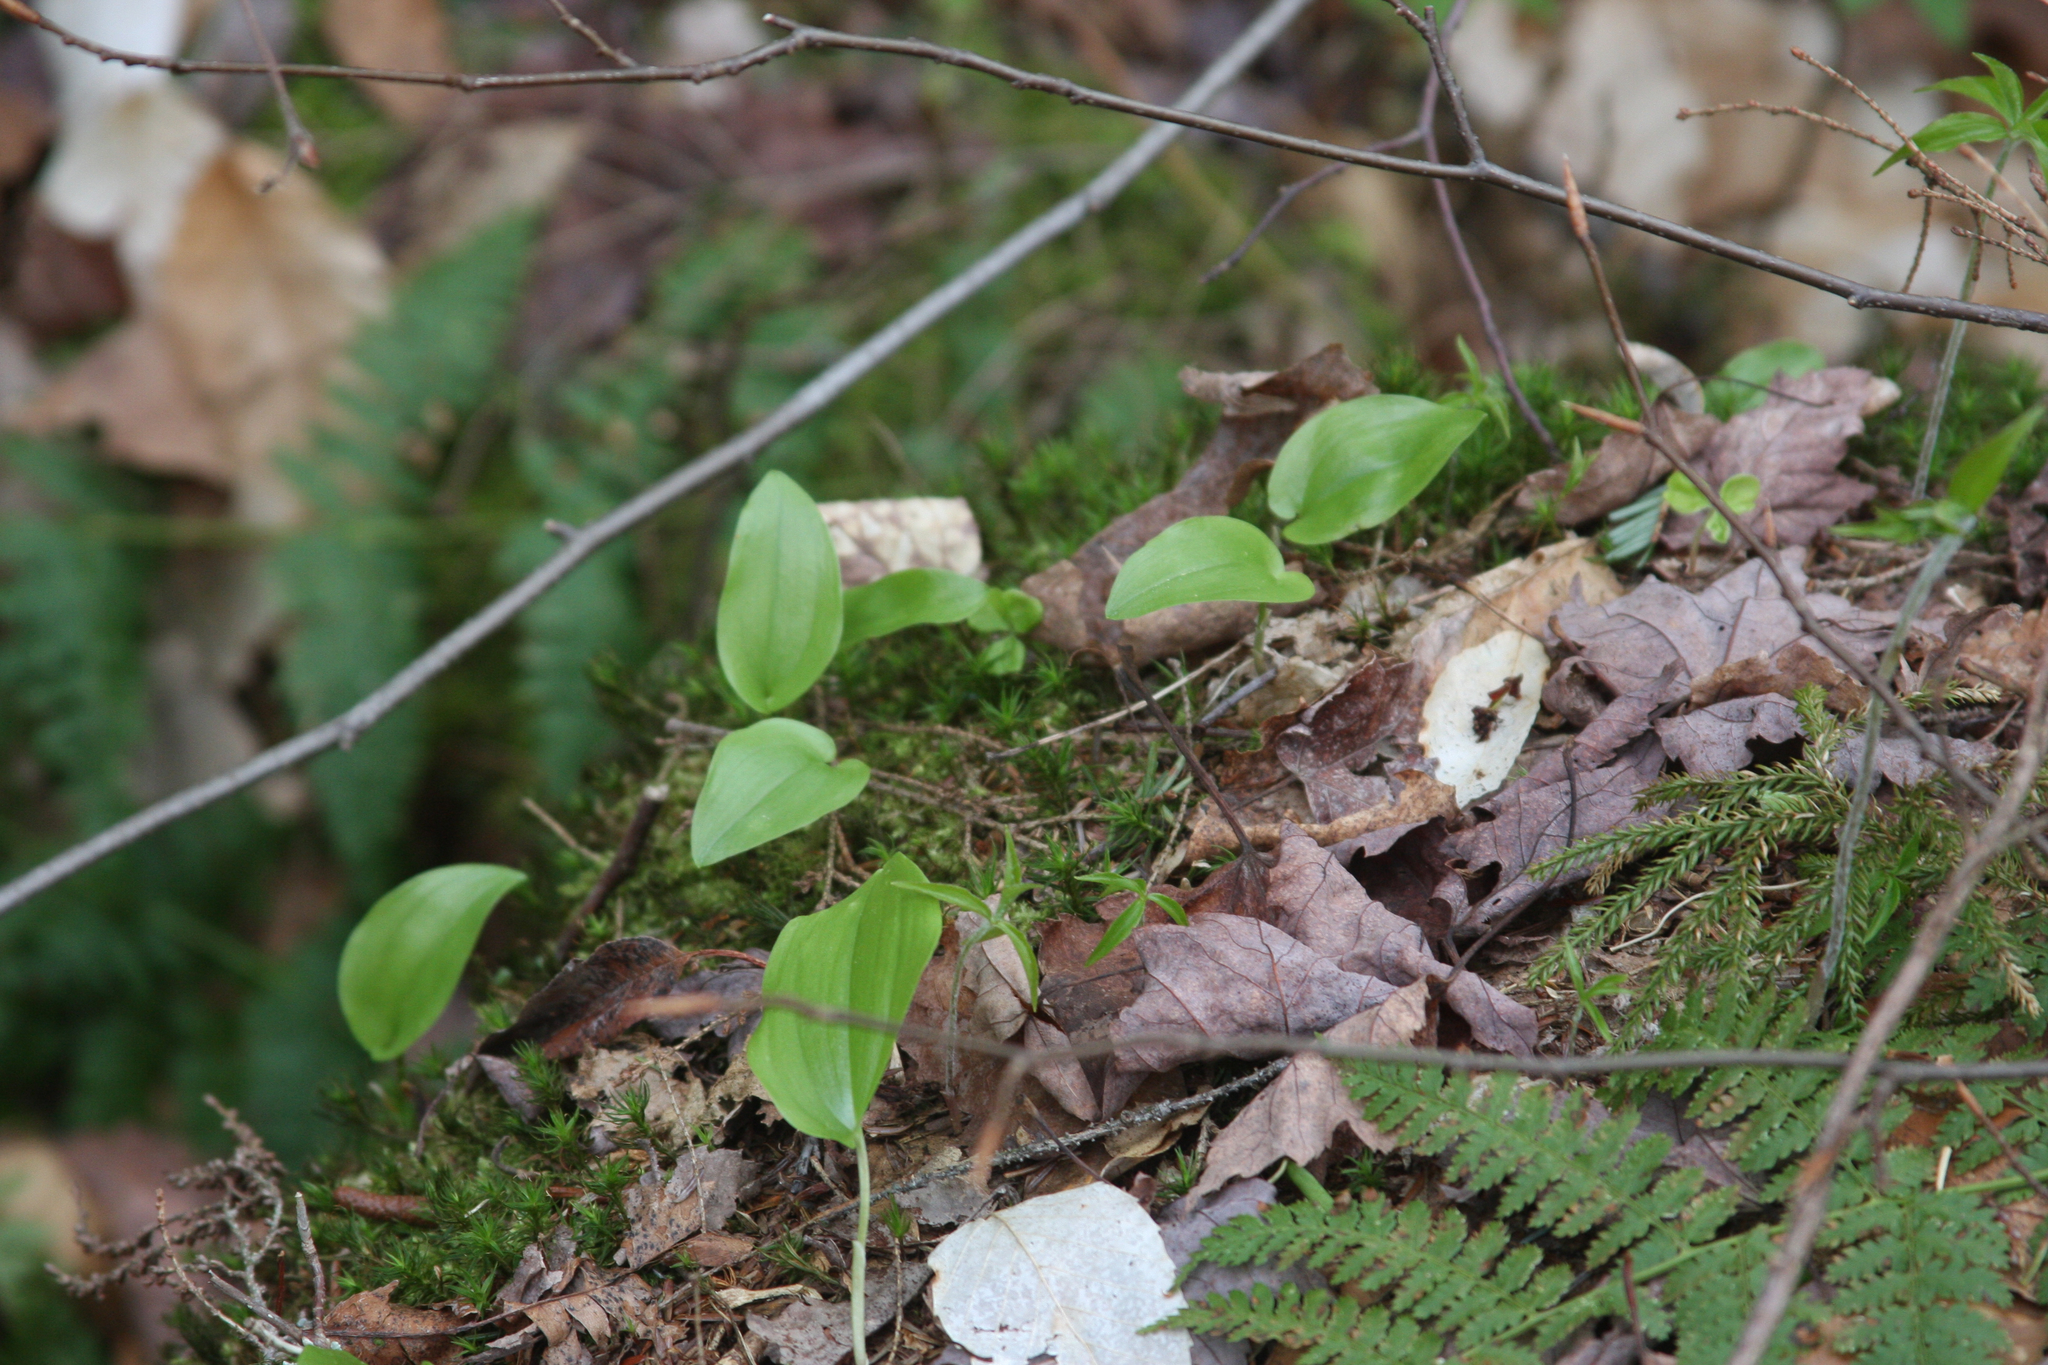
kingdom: Plantae
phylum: Tracheophyta
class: Liliopsida
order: Asparagales
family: Asparagaceae
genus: Maianthemum
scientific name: Maianthemum canadense
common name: False lily-of-the-valley
